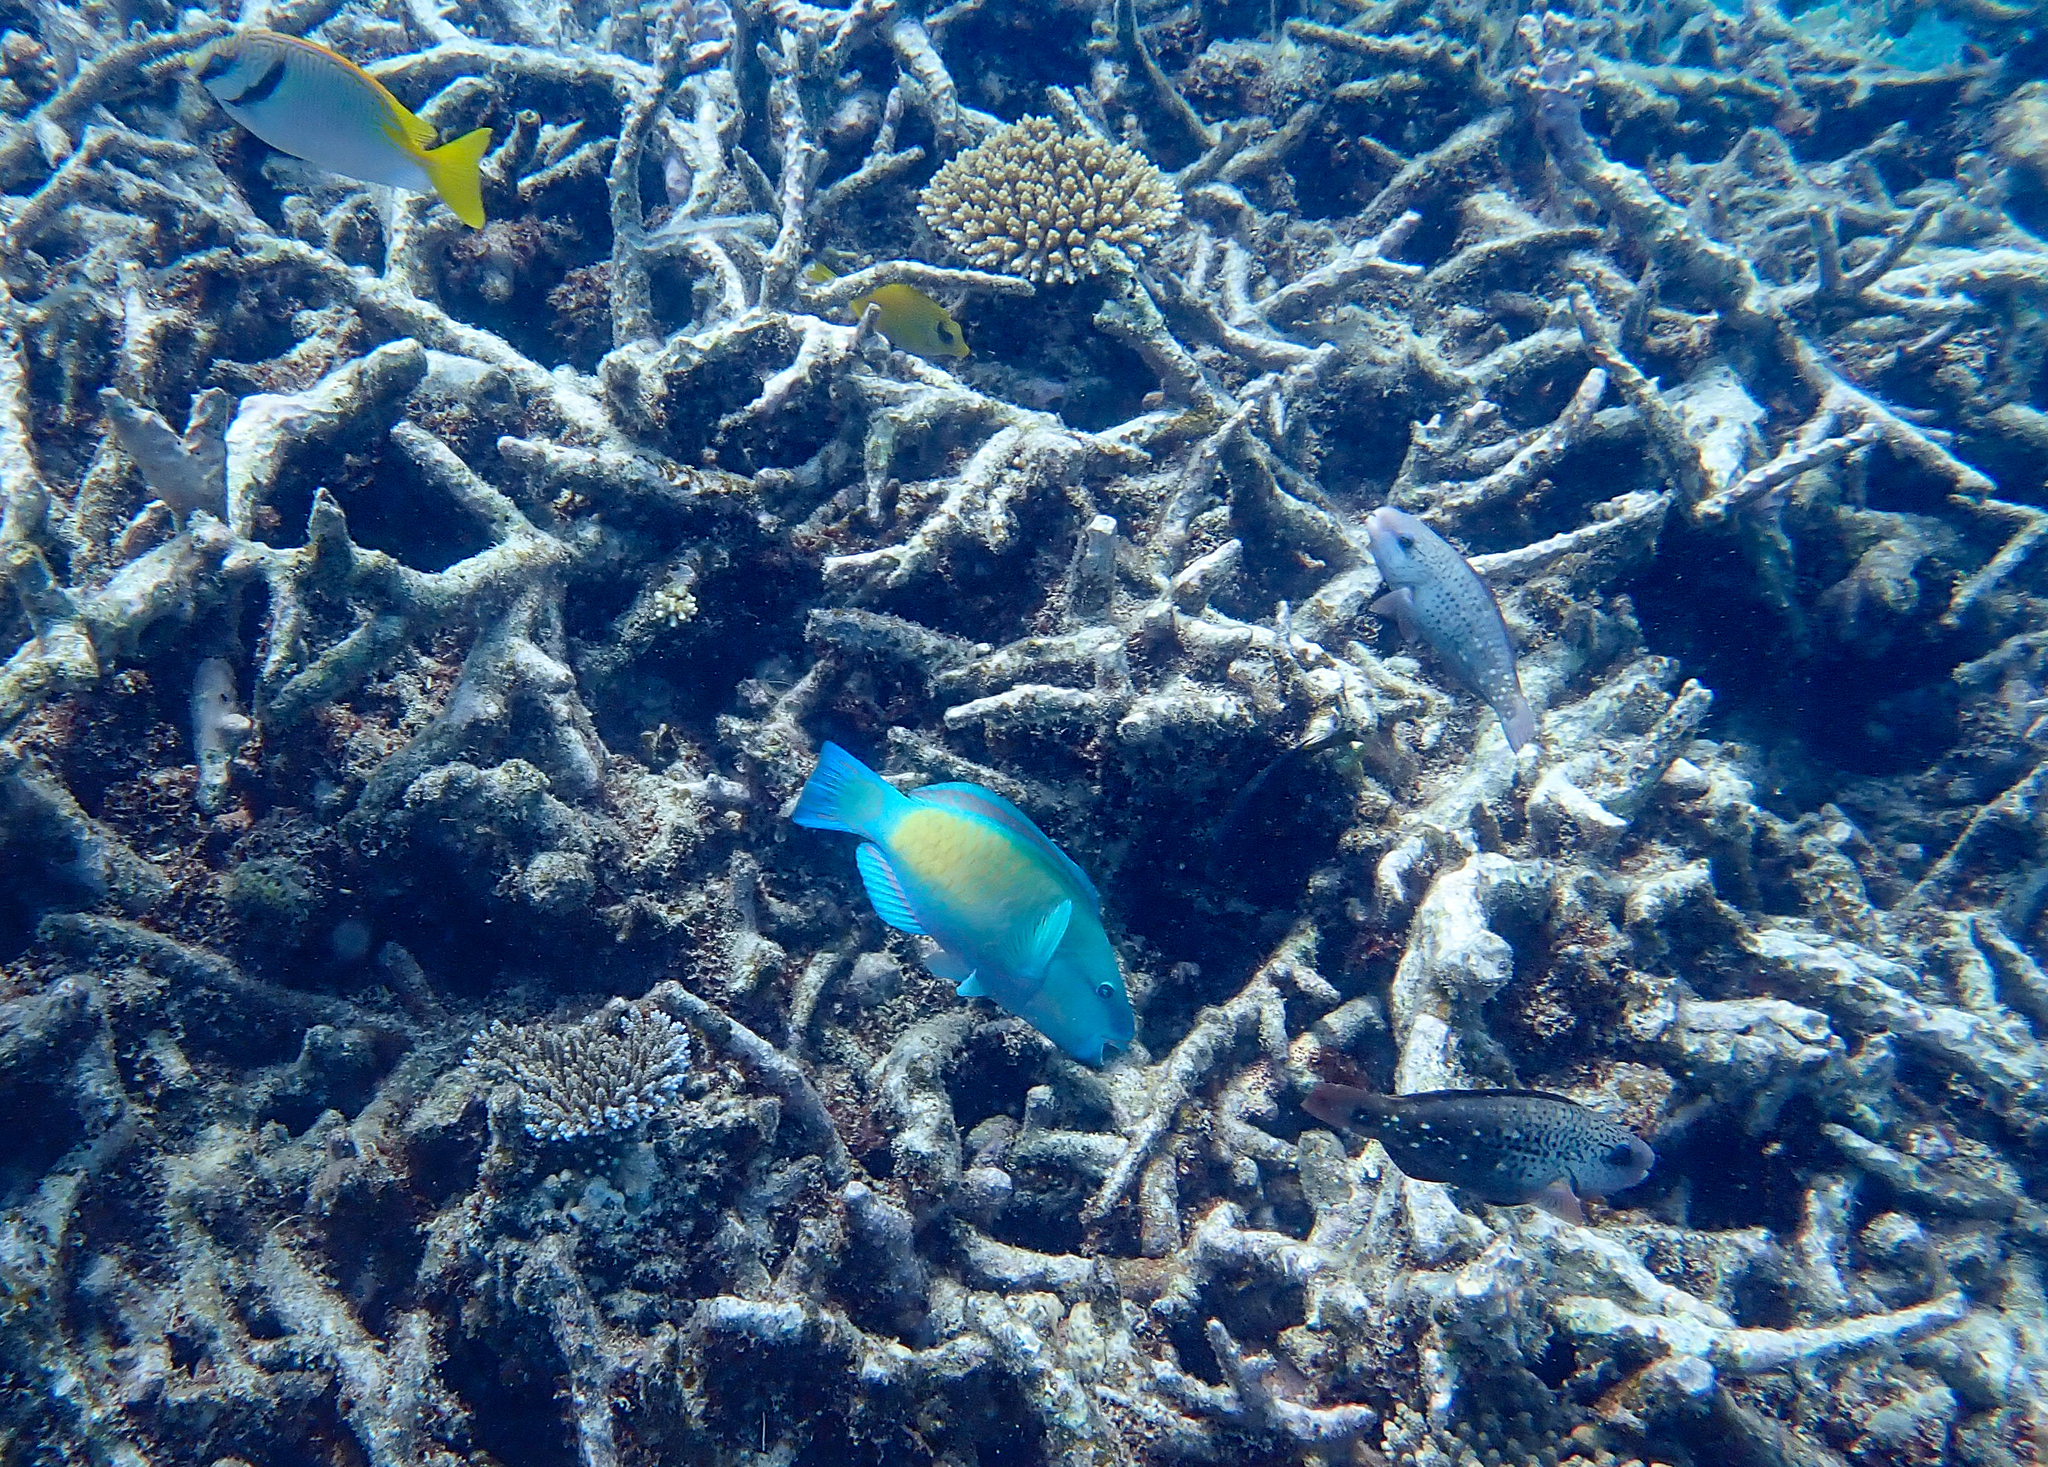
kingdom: Animalia
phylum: Chordata
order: Perciformes
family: Scaridae
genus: Chlorurus
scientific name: Chlorurus spilurus
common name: Bullethead parrotfish
